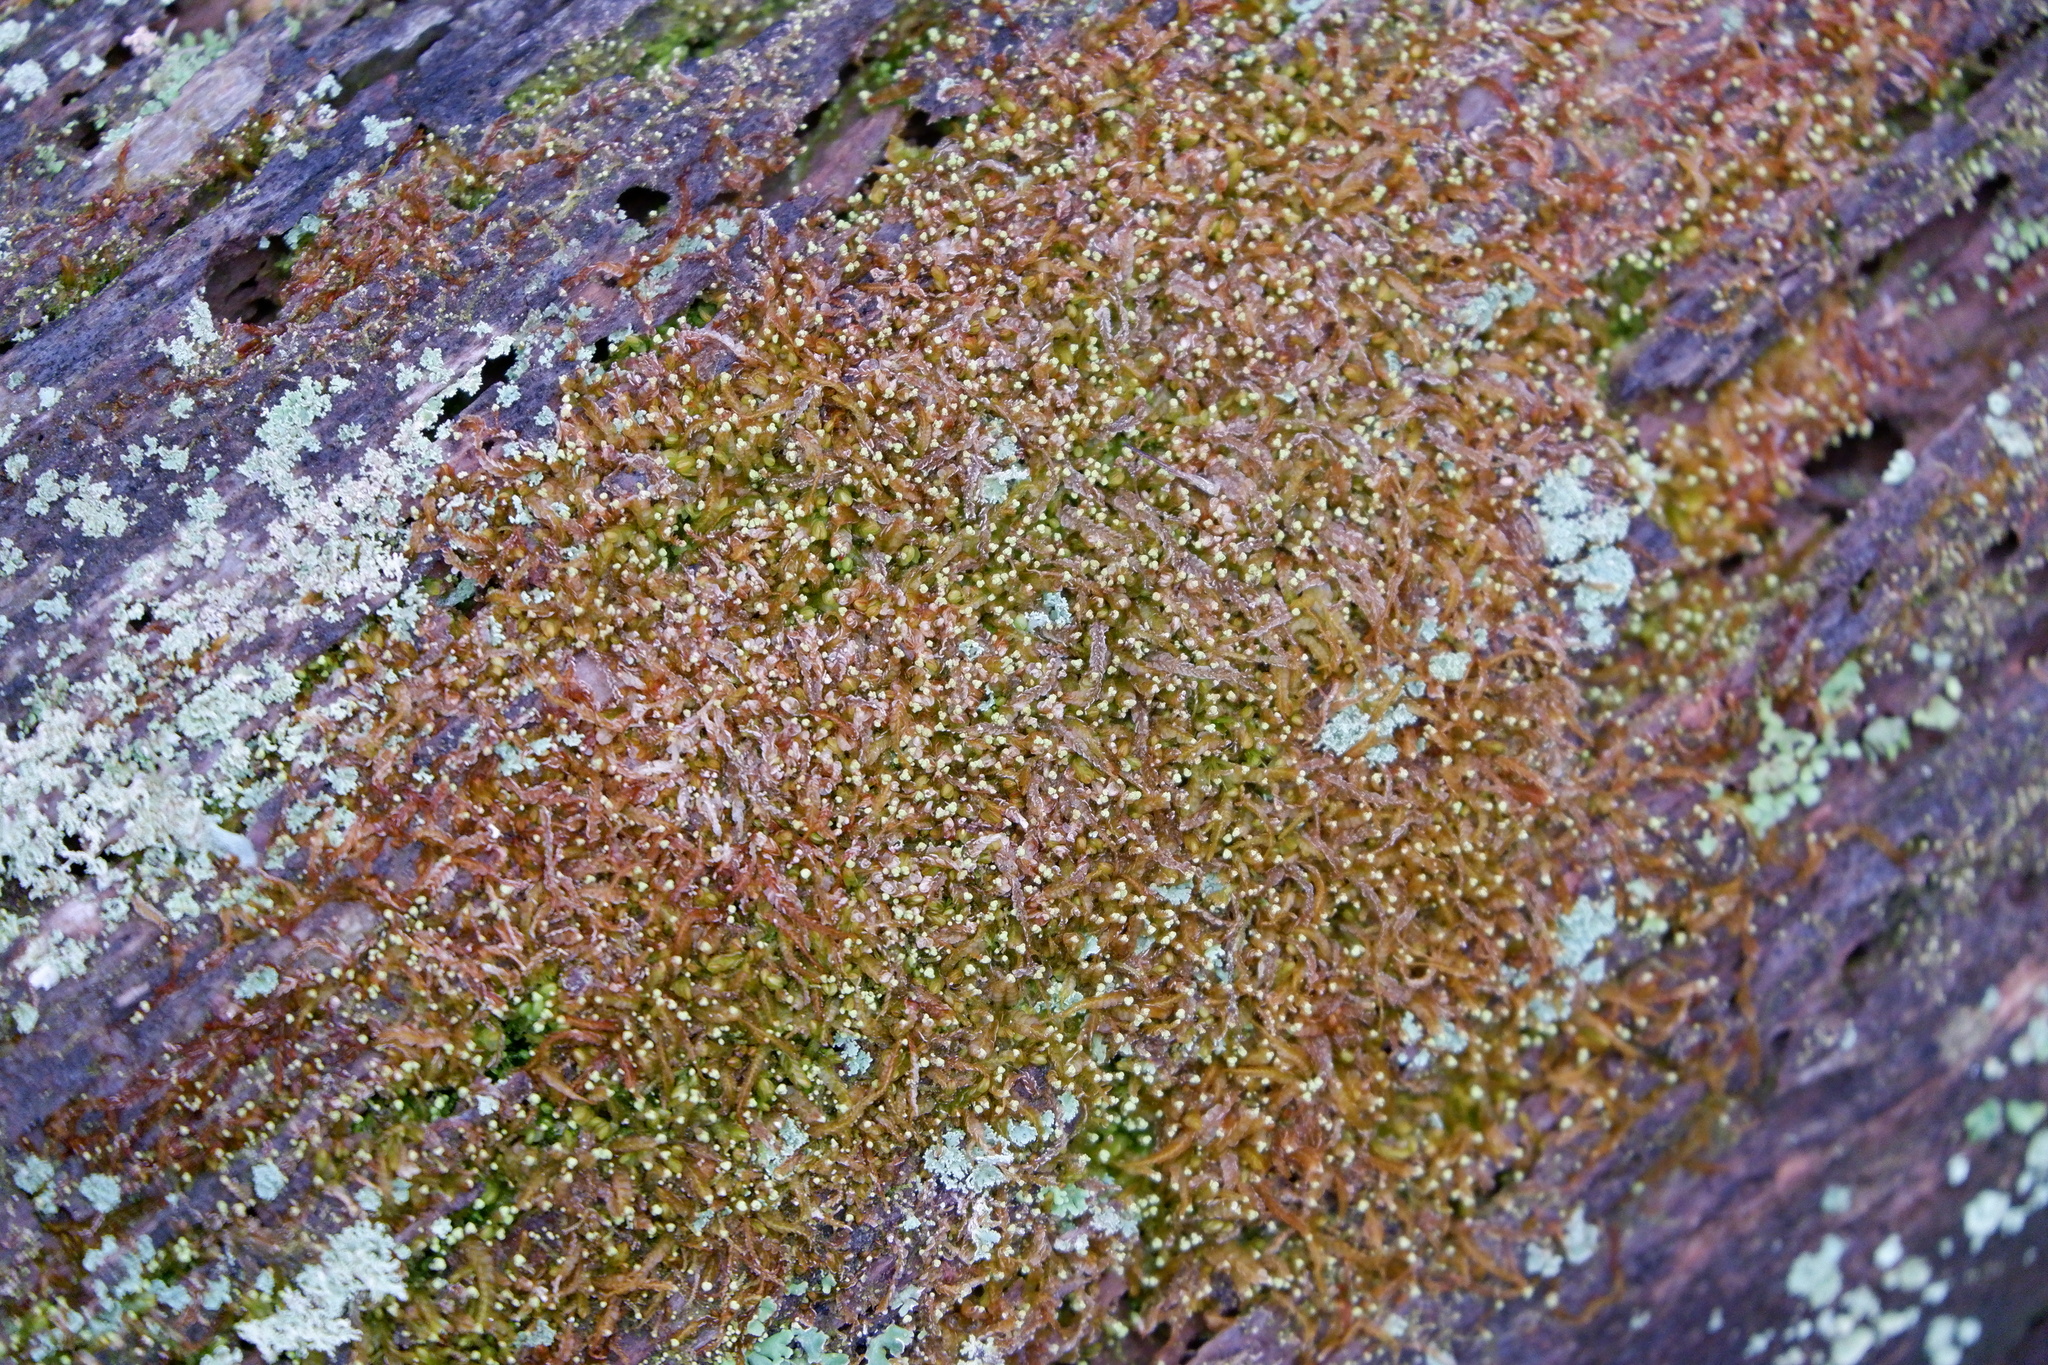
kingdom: Plantae
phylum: Marchantiophyta
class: Jungermanniopsida
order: Jungermanniales
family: Cephaloziaceae
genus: Odontoschisma
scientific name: Odontoschisma denudatum
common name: Matchstick flapwort
